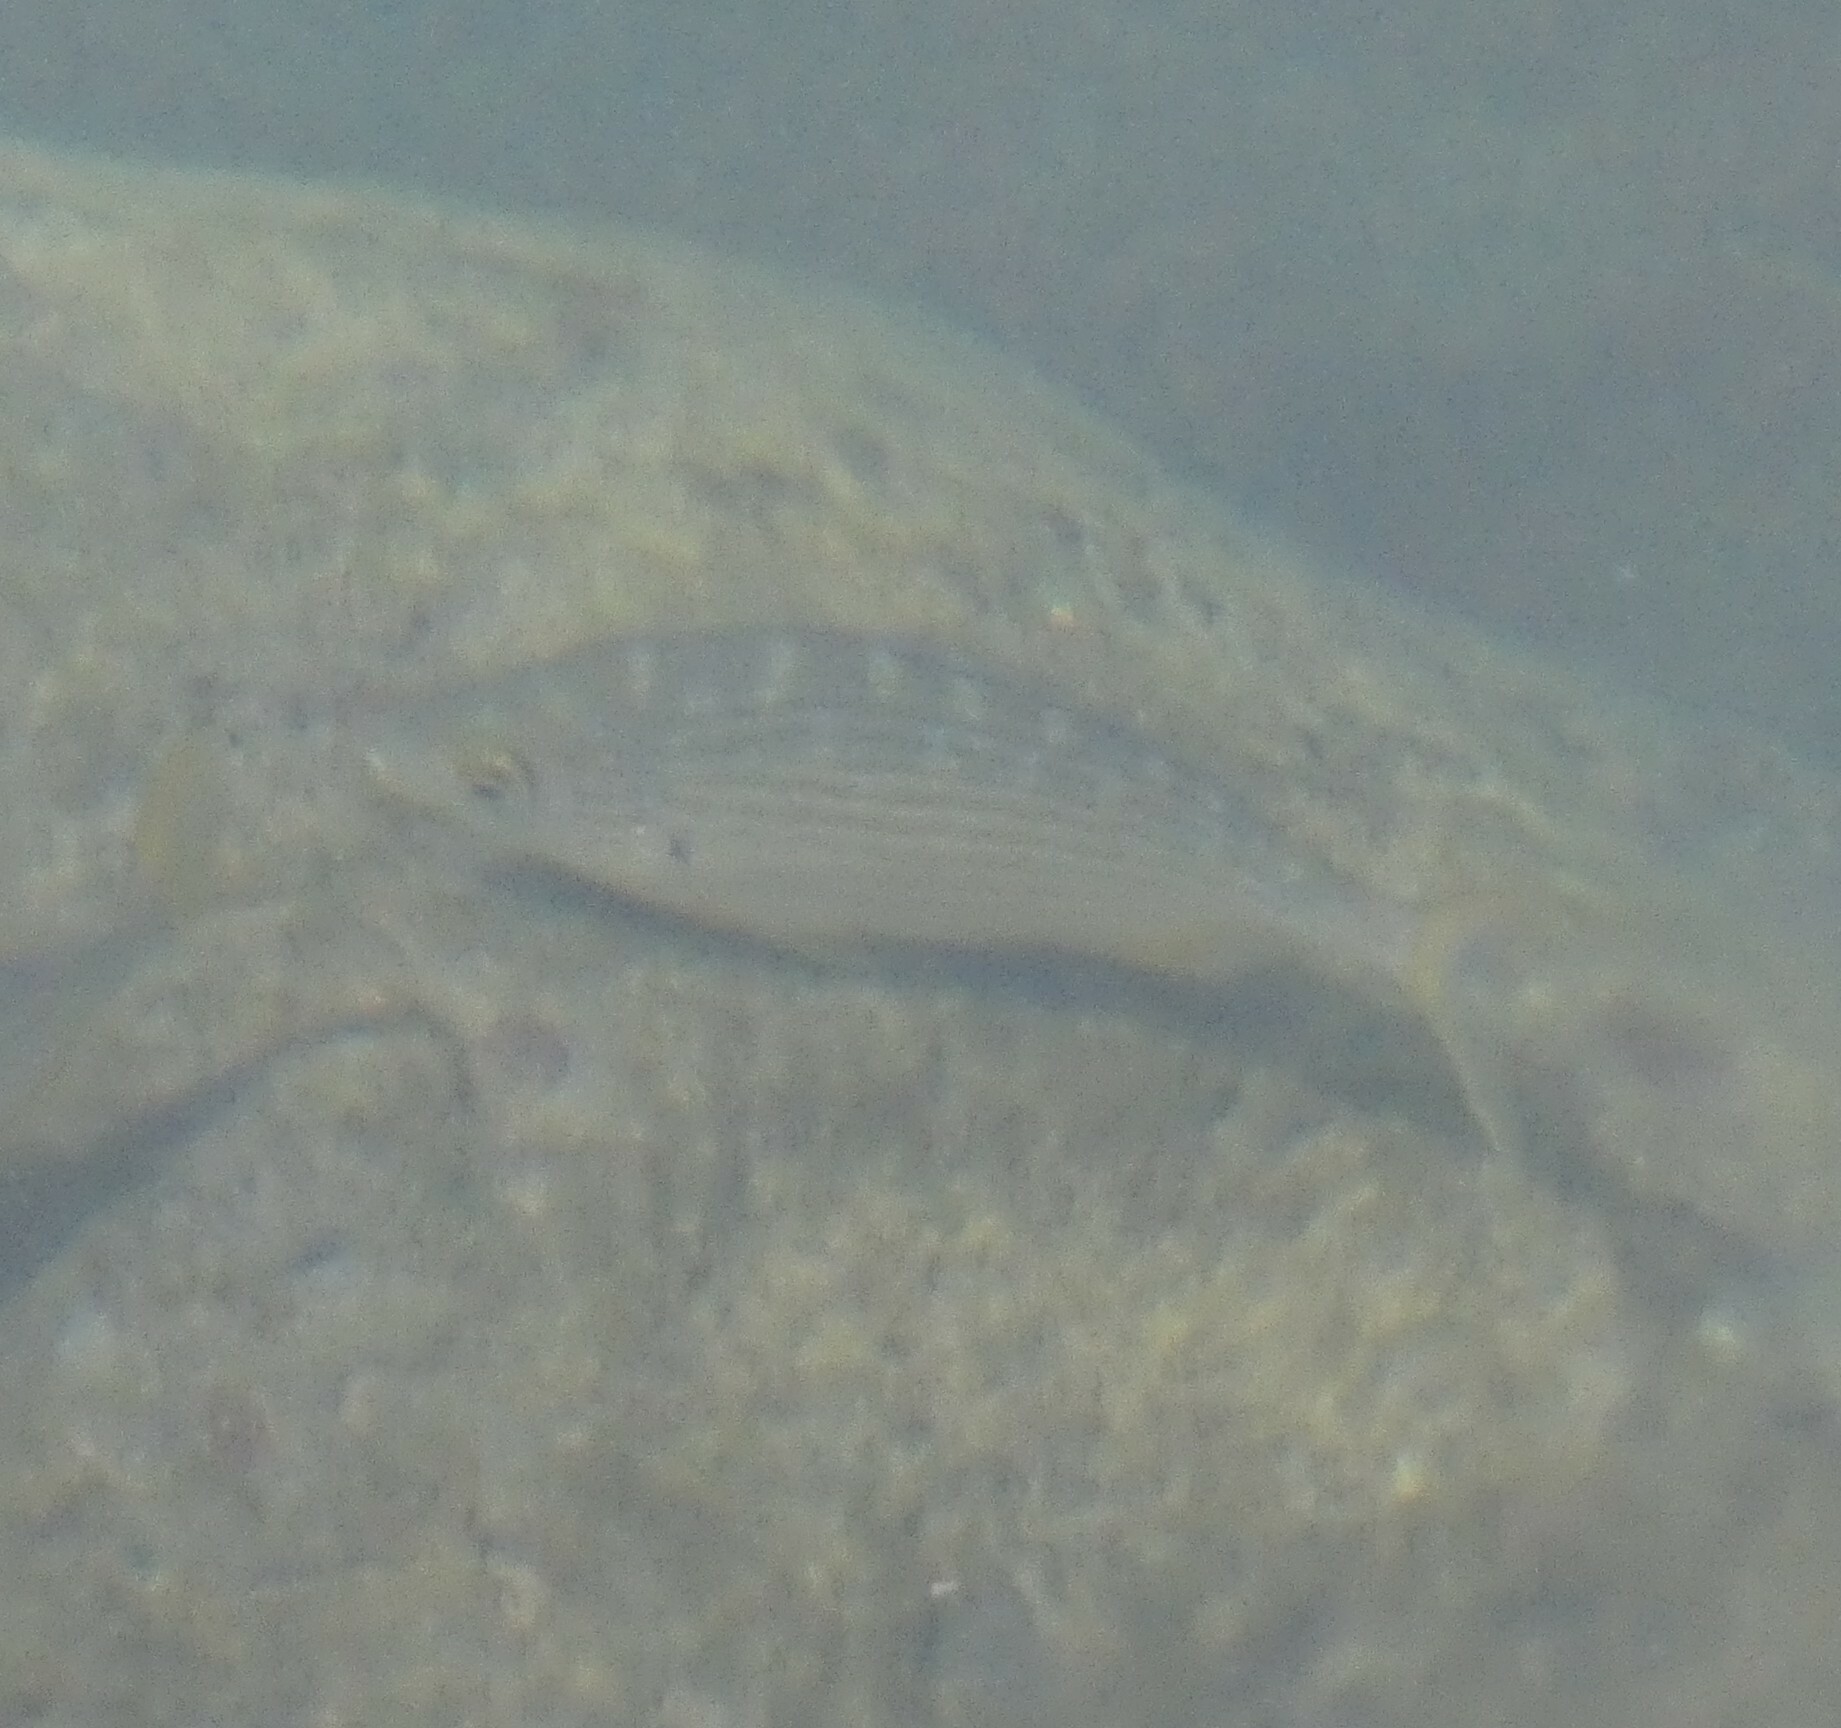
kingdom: Animalia
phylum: Chordata
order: Perciformes
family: Sparidae
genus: Sarpa
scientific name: Sarpa salpa
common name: Salema
